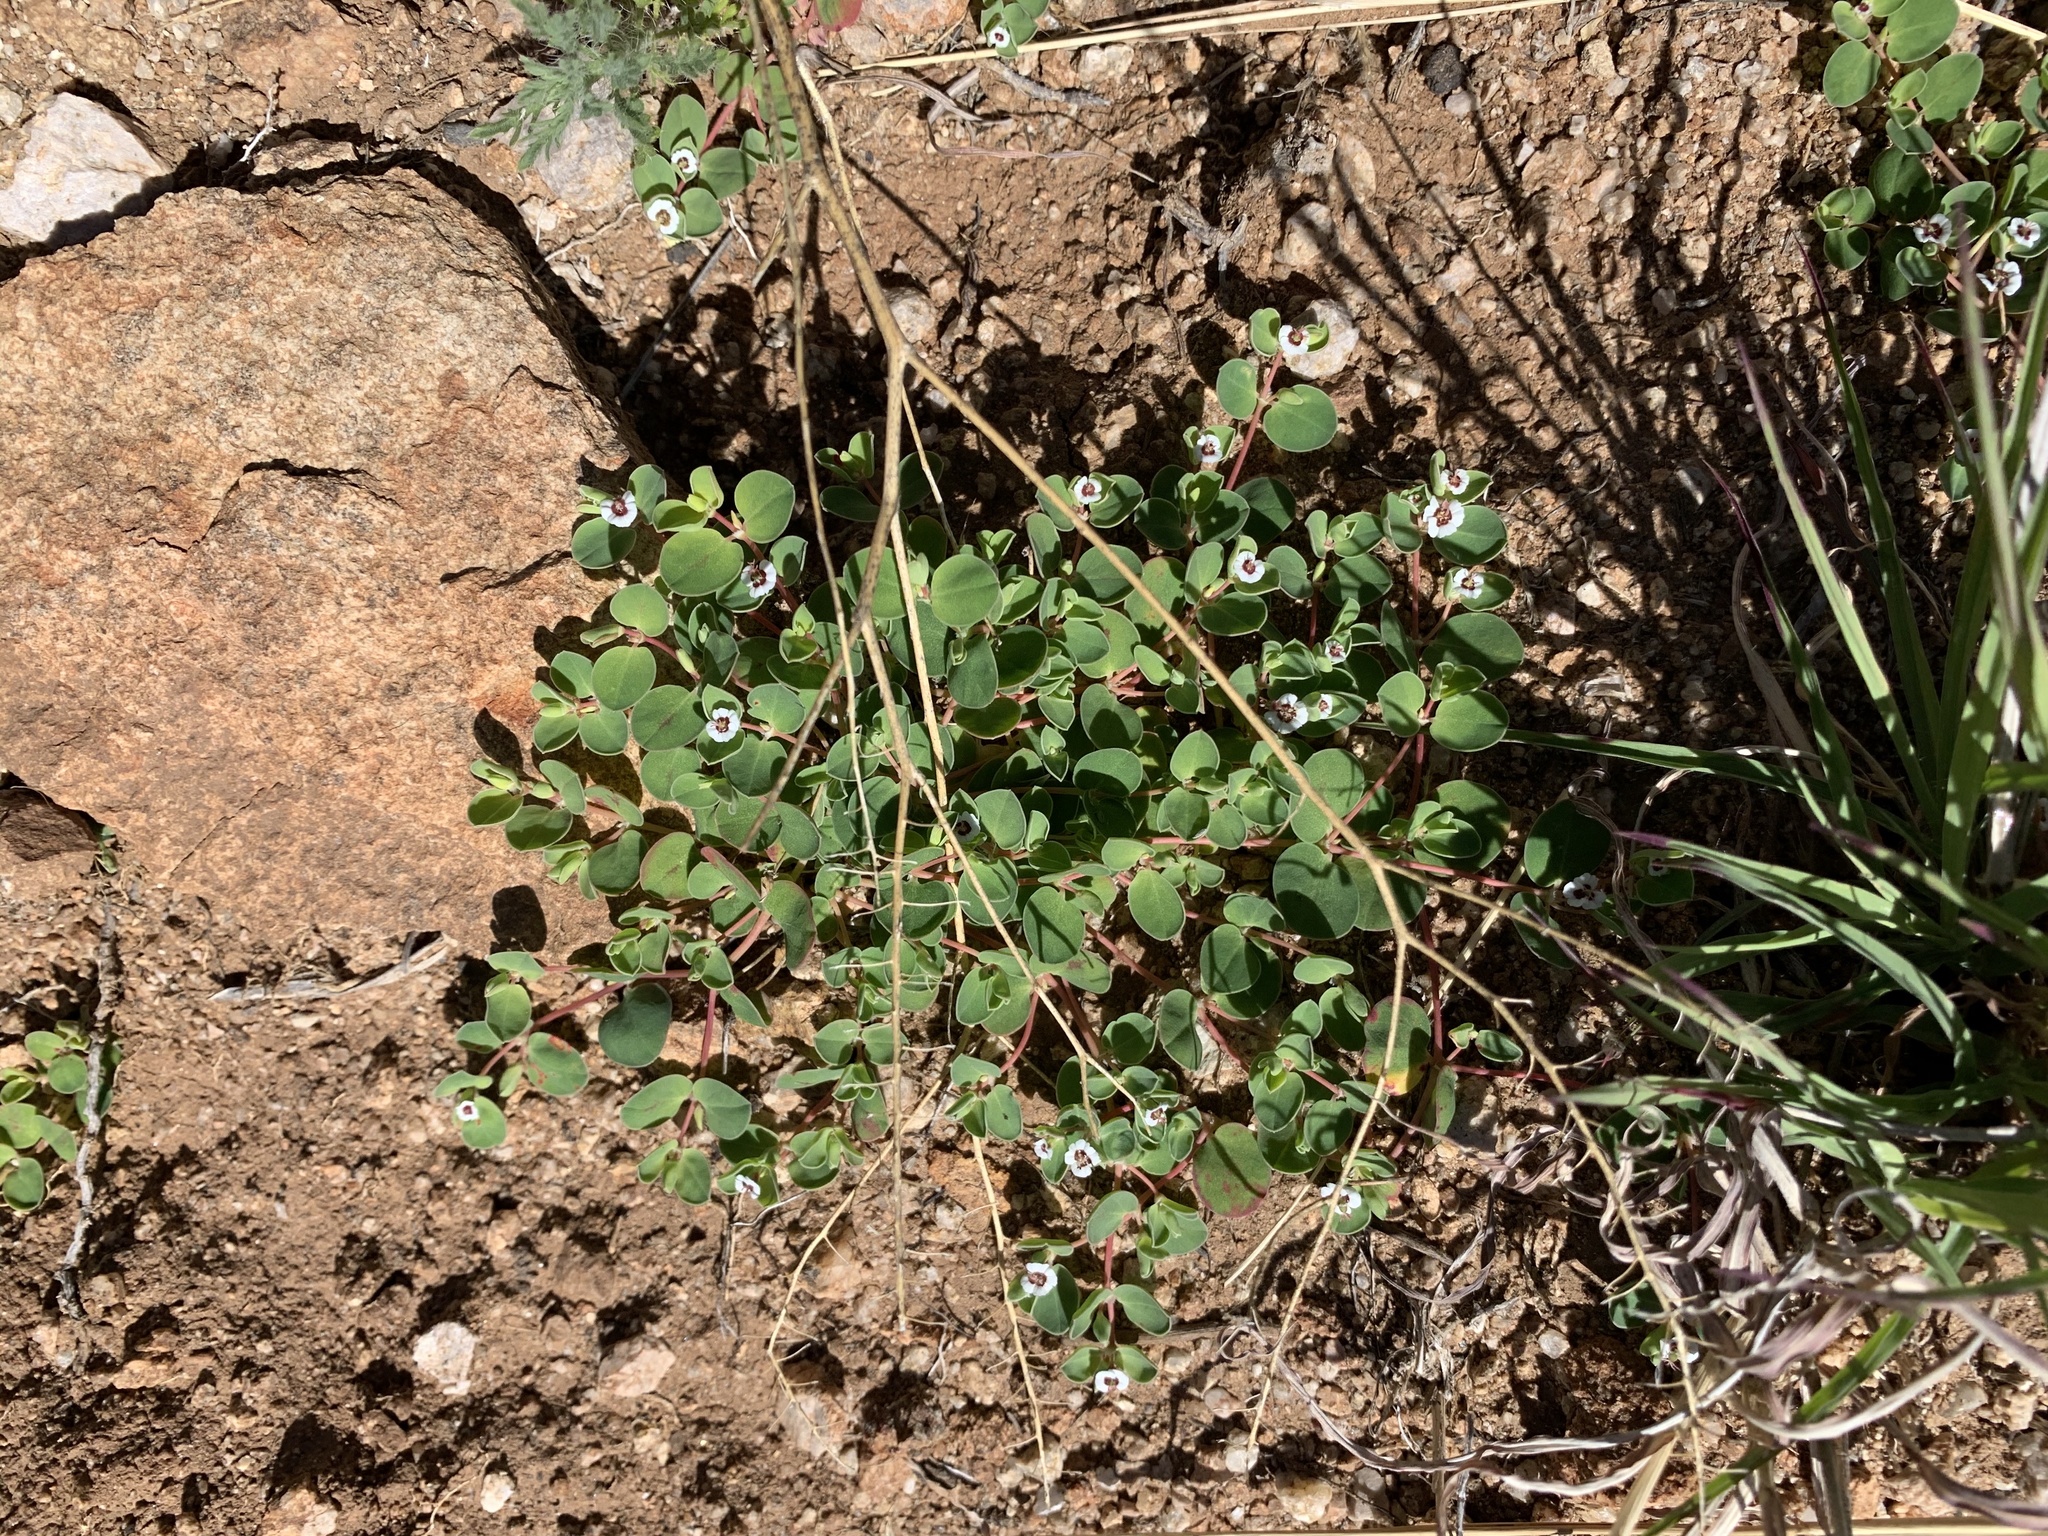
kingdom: Plantae
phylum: Tracheophyta
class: Magnoliopsida
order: Malpighiales
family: Euphorbiaceae
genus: Euphorbia
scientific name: Euphorbia albomarginata
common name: Whitemargin sandmat
